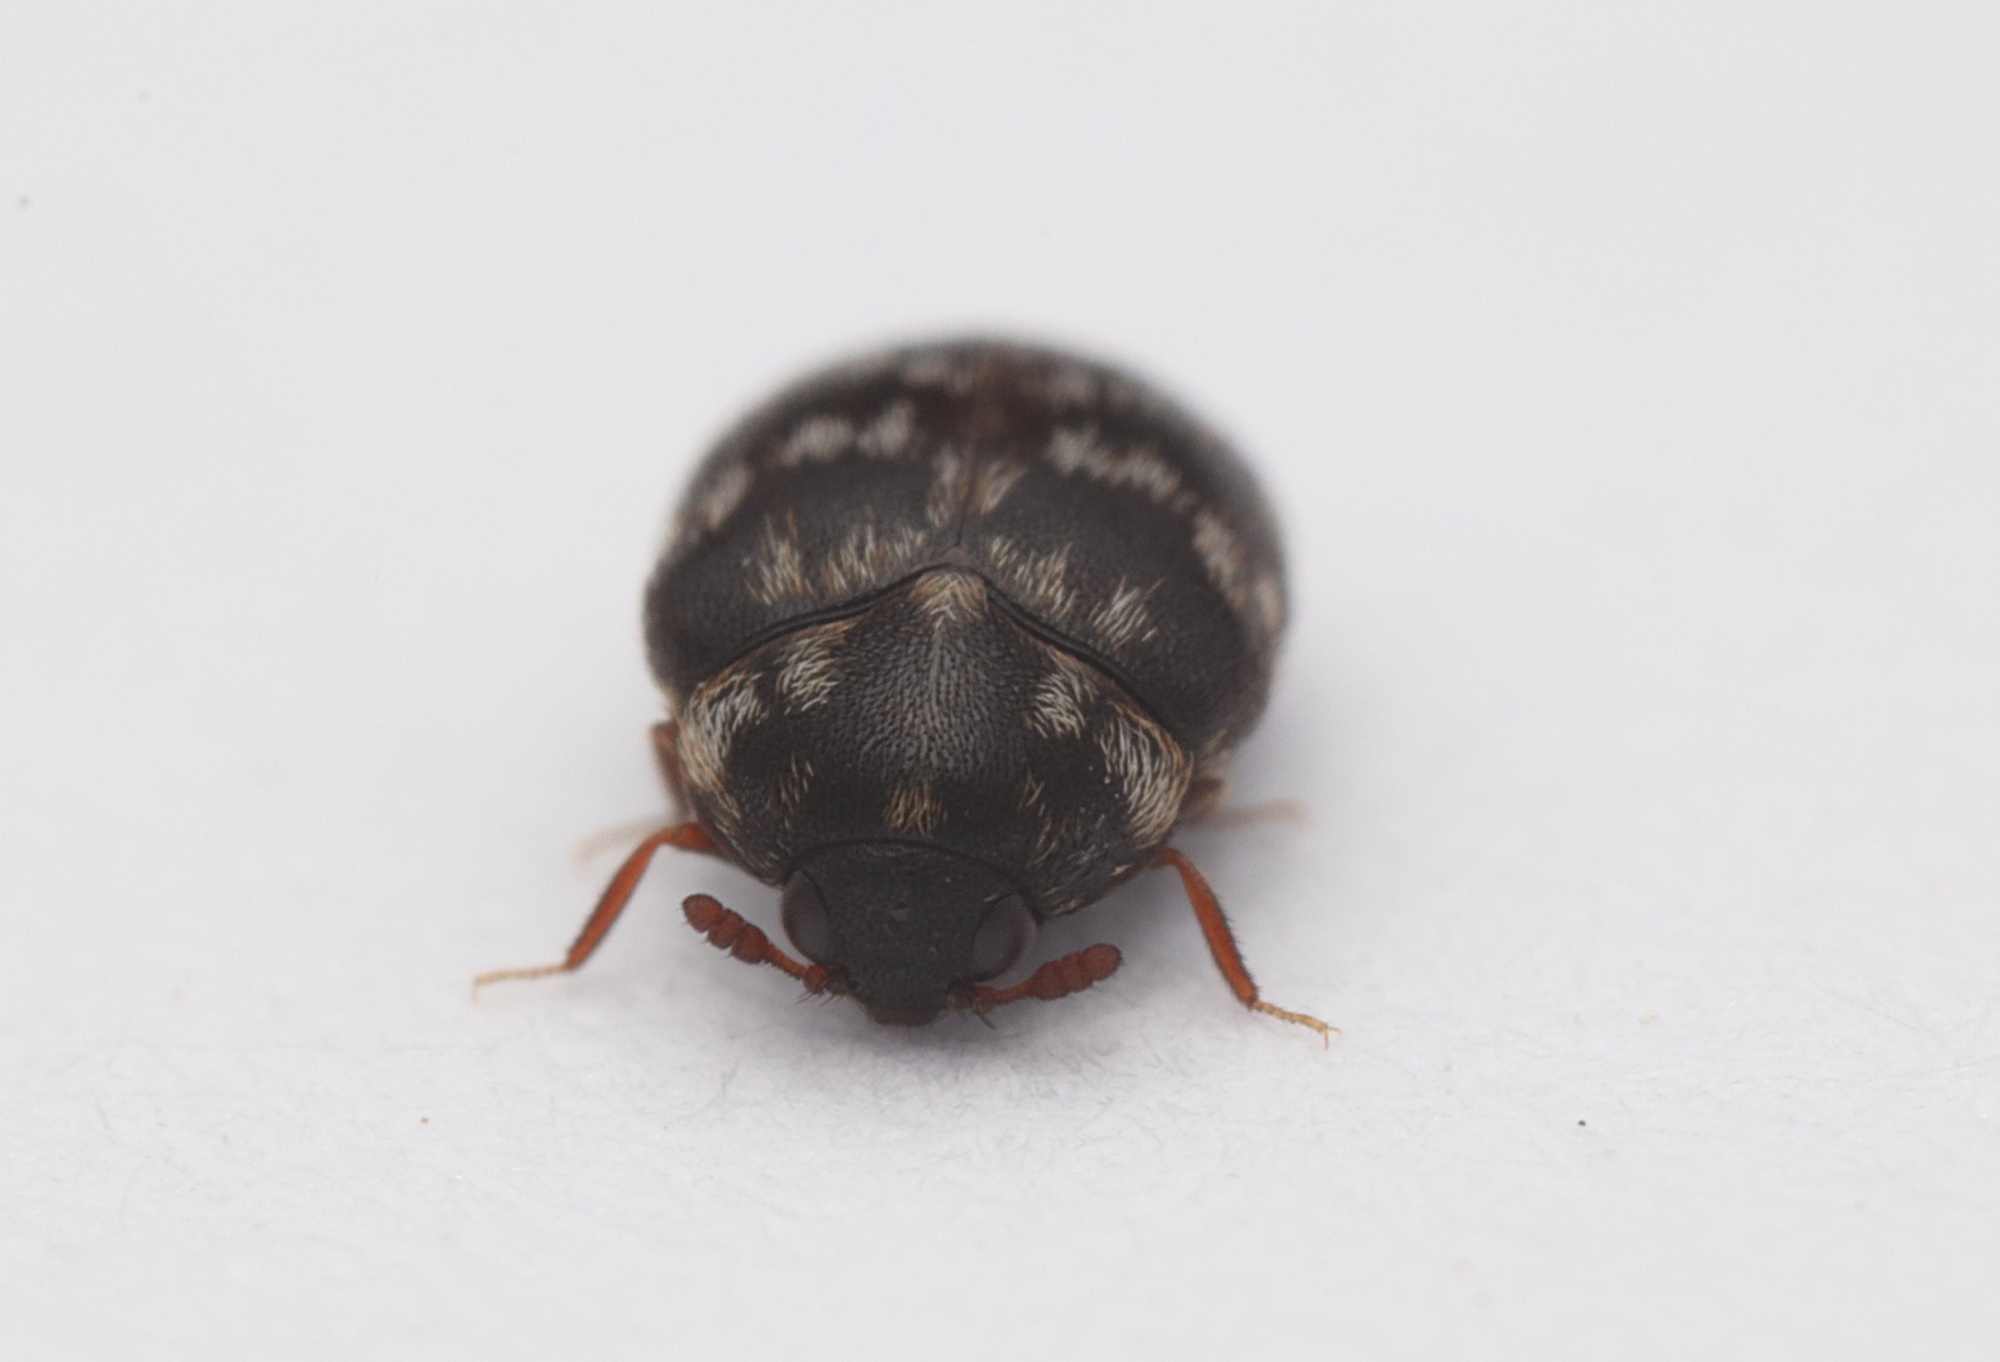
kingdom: Animalia
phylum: Arthropoda
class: Insecta
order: Coleoptera
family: Dermestidae
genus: Anthrenocerus
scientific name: Anthrenocerus australis
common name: Australian carpet beetle
